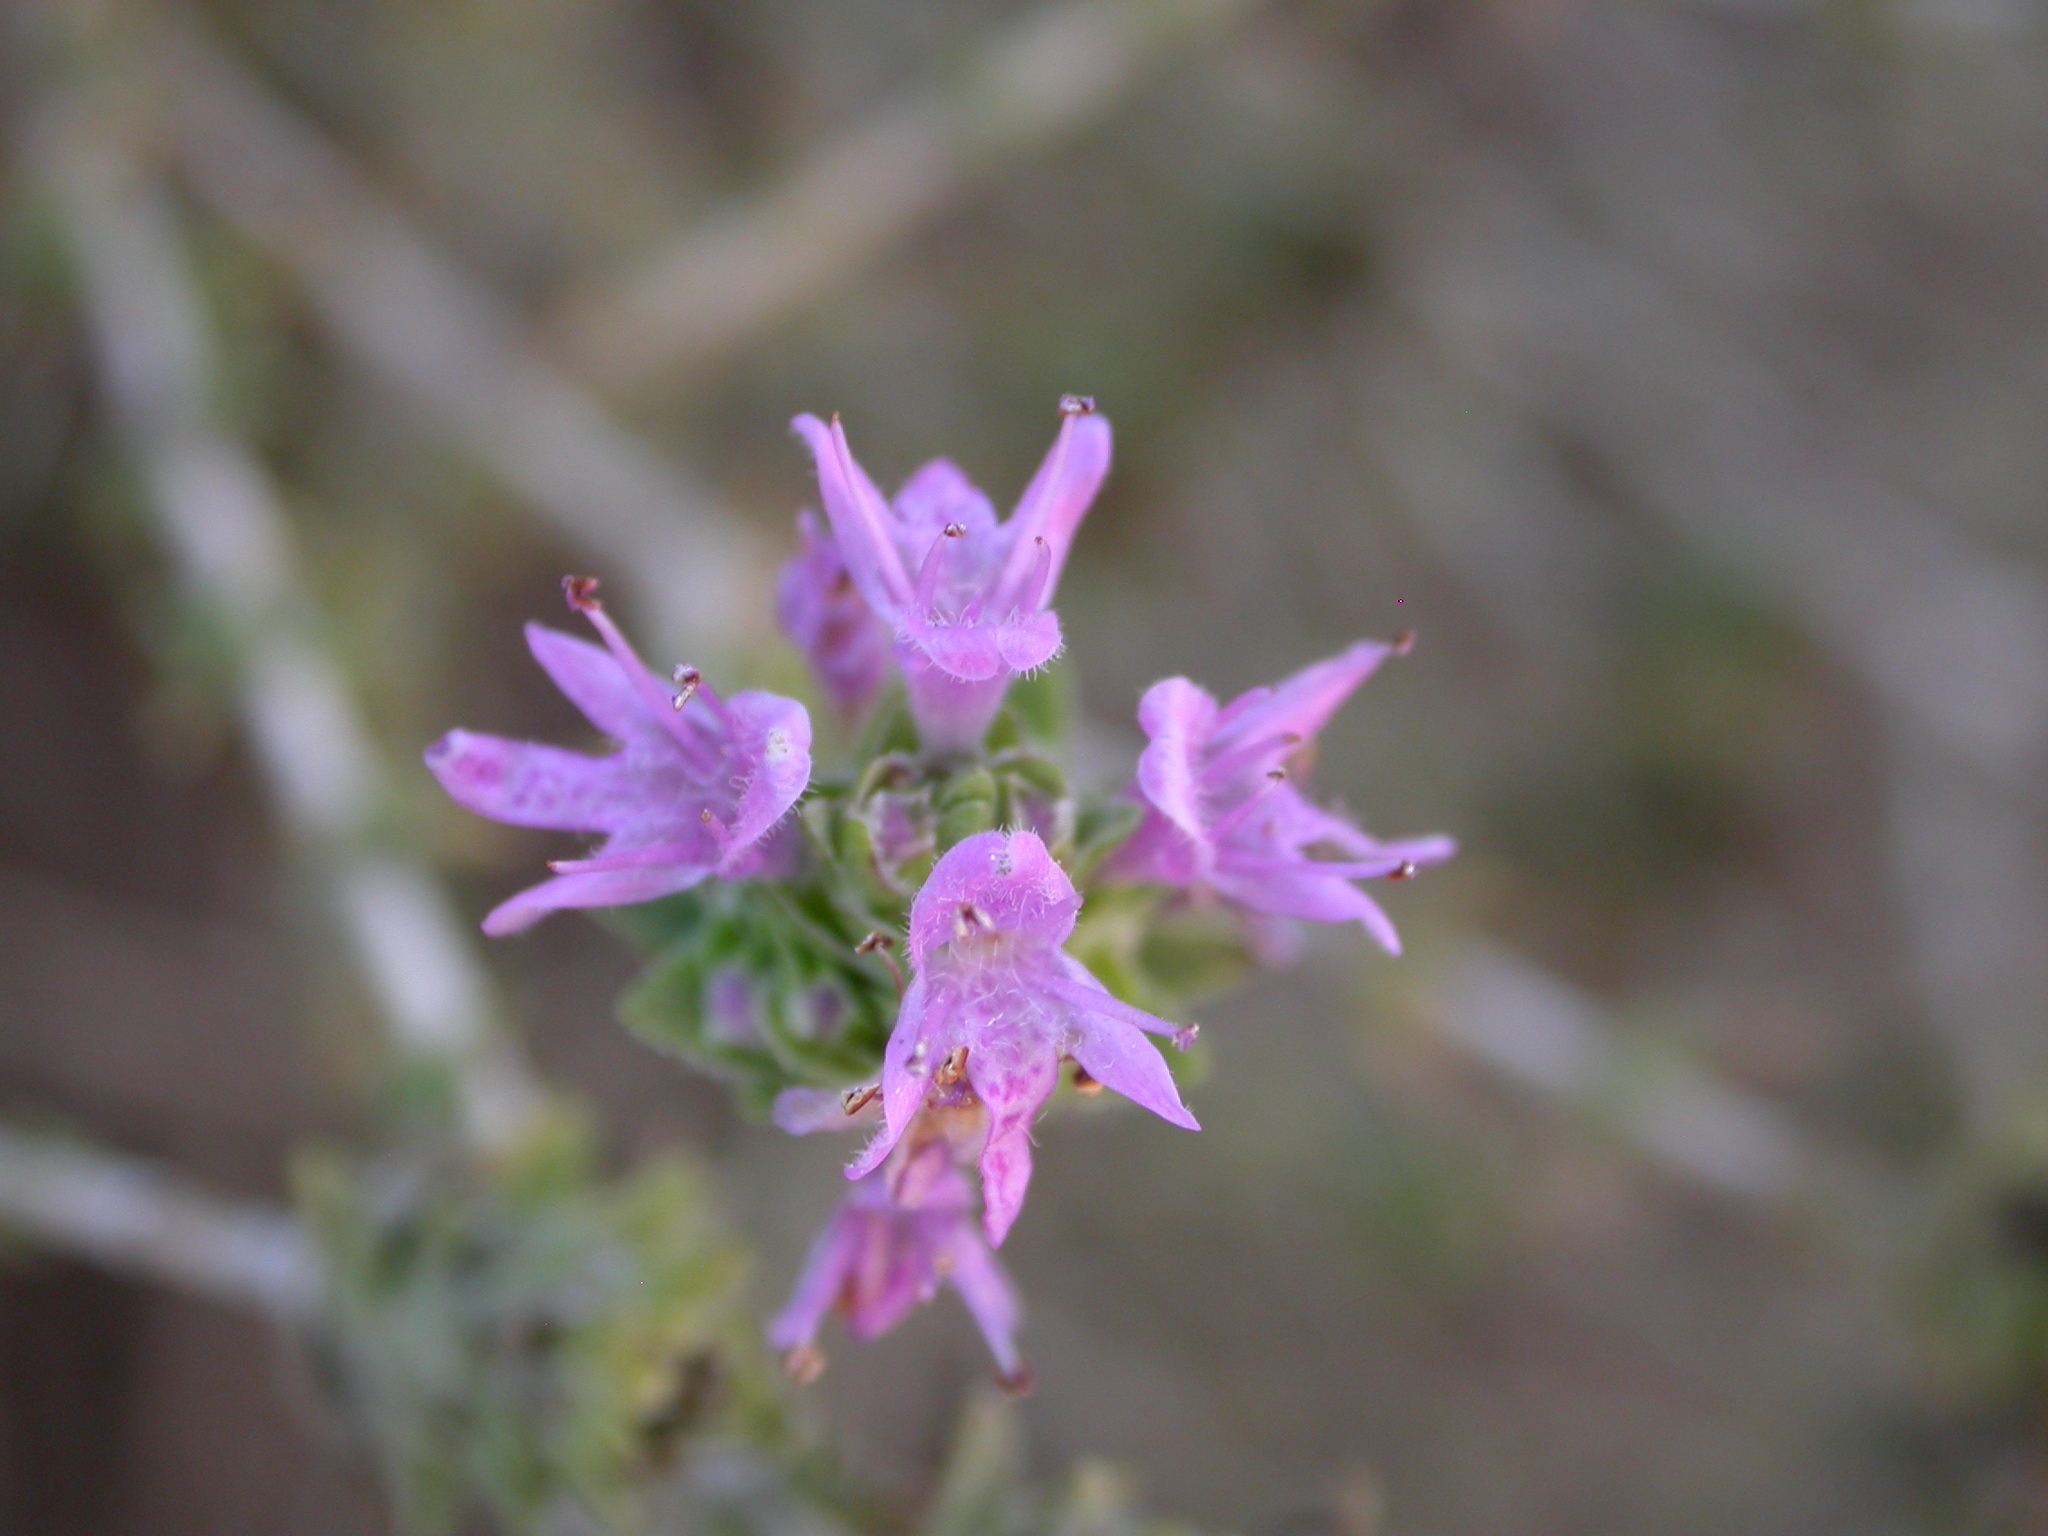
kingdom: Plantae
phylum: Tracheophyta
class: Magnoliopsida
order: Lamiales
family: Lamiaceae
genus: Thymbra
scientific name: Thymbra capitata
